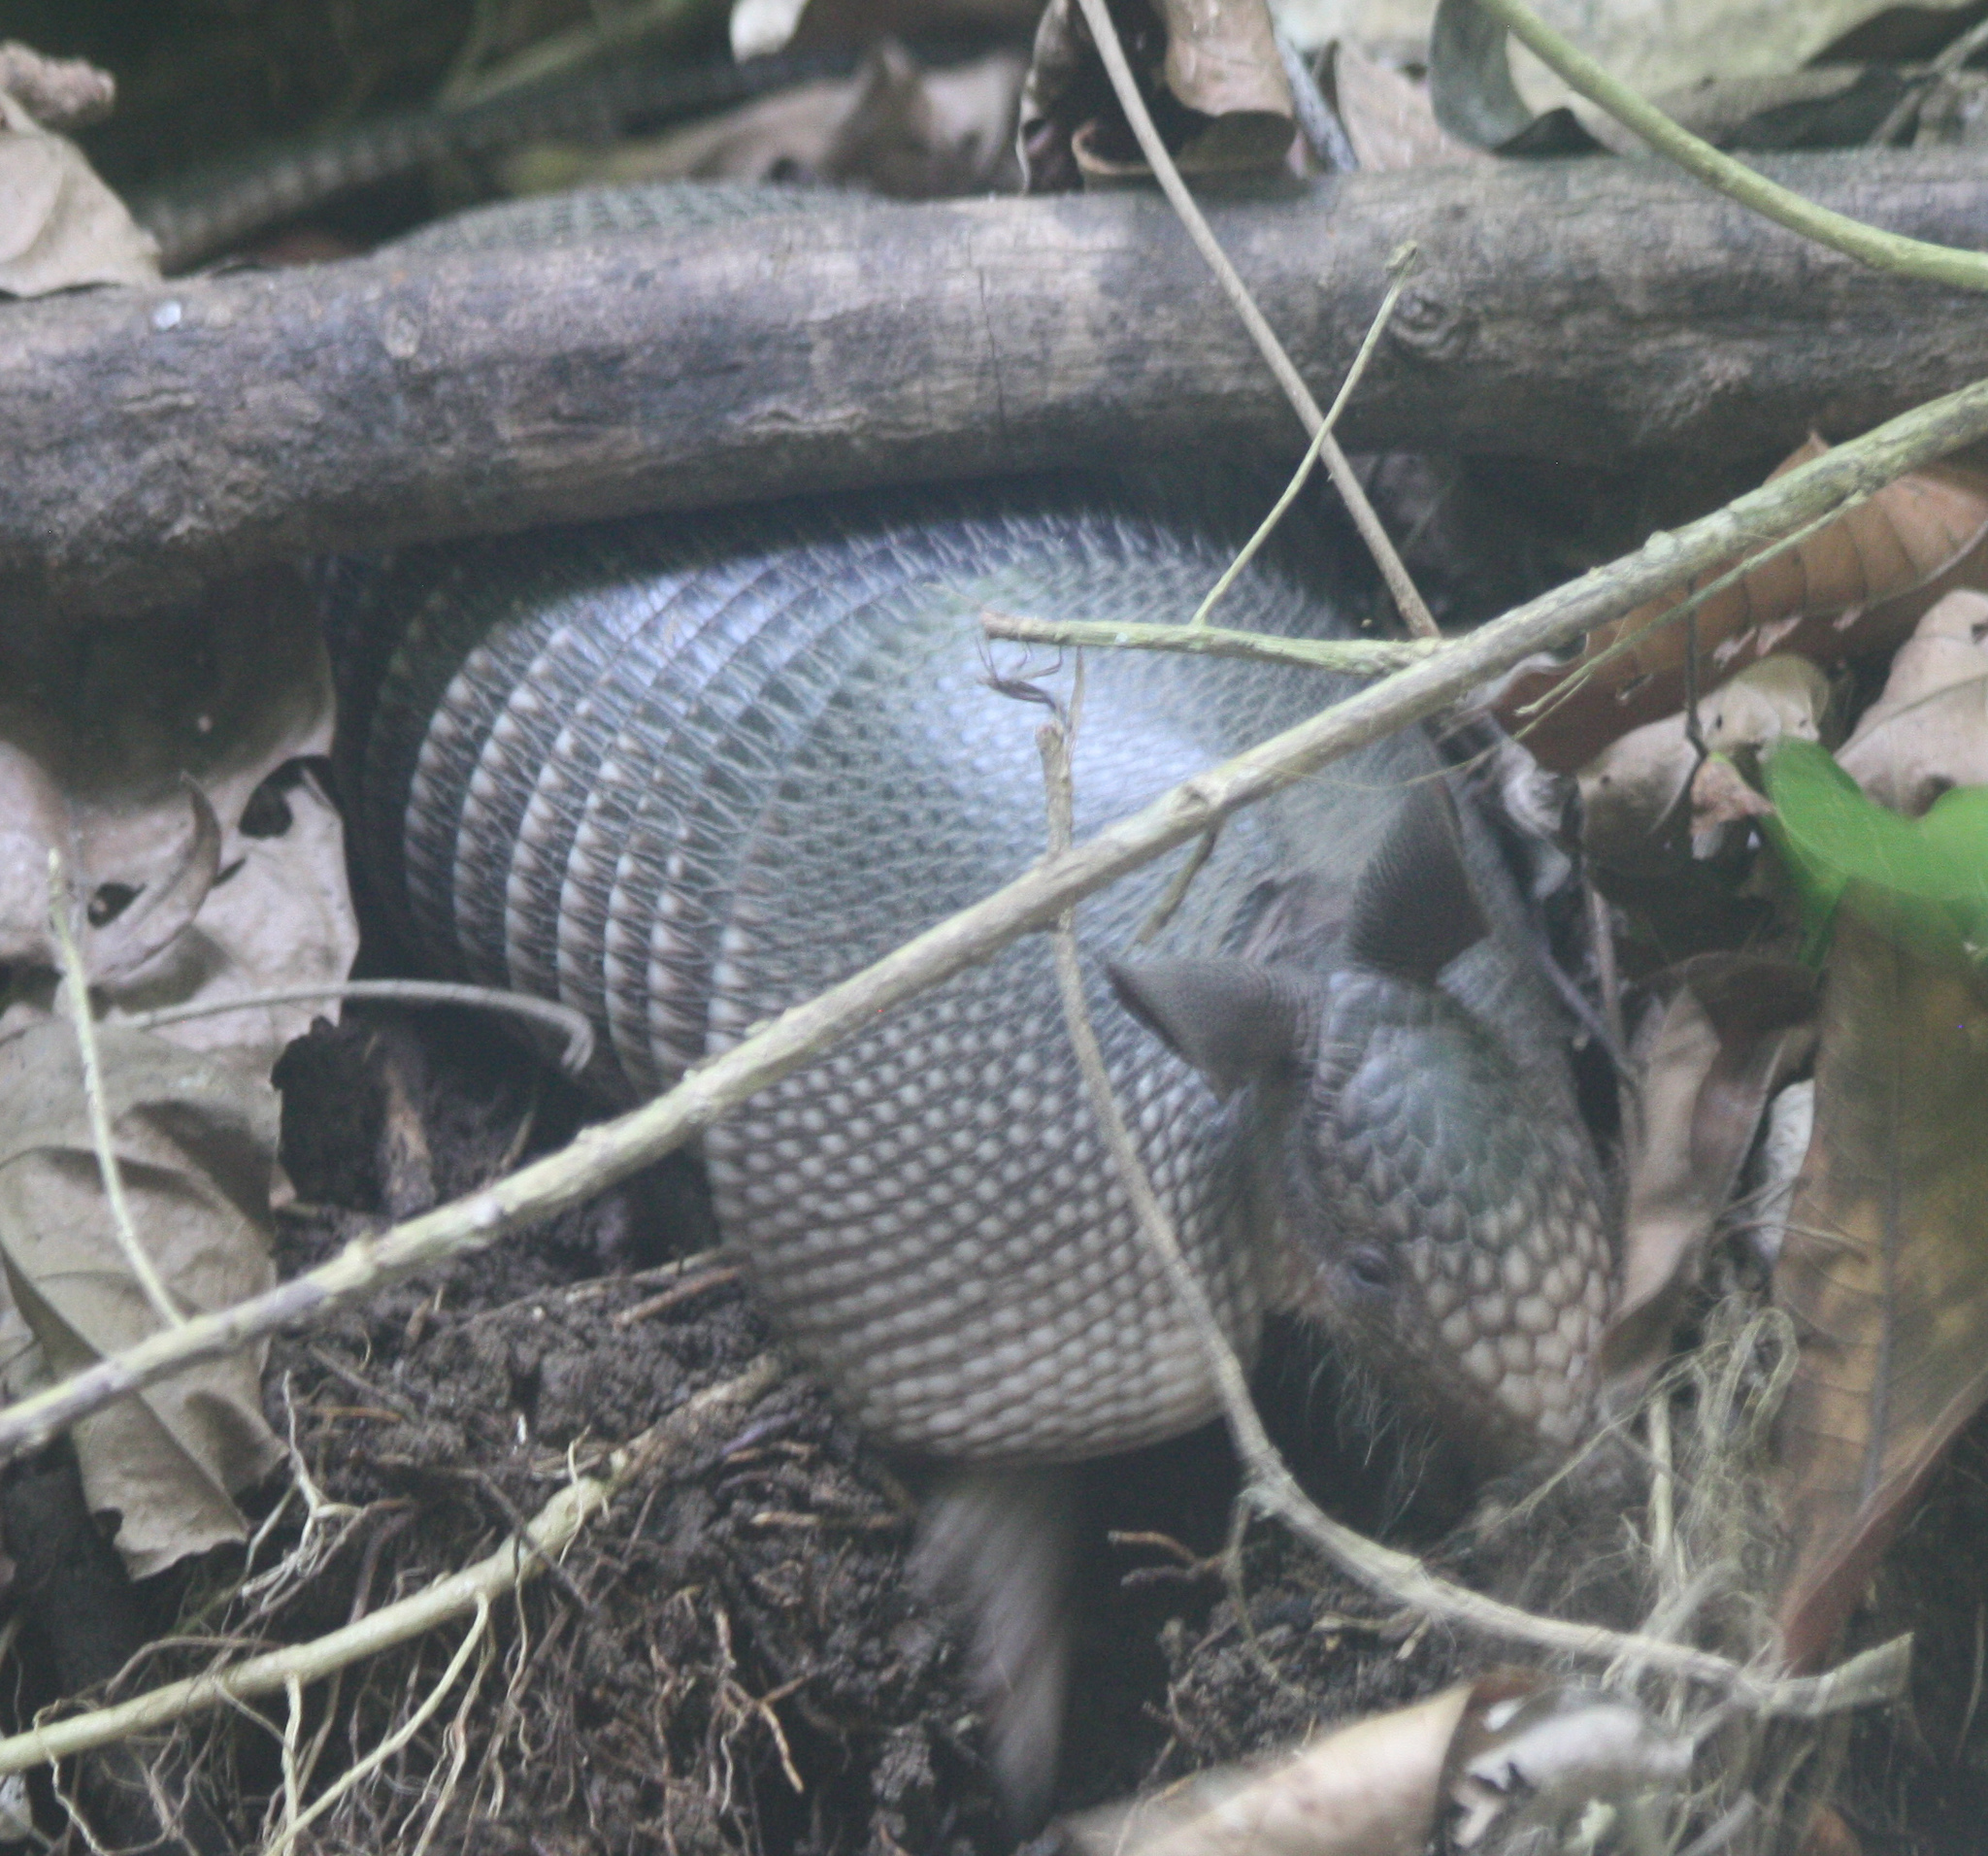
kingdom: Animalia
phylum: Chordata
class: Mammalia
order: Cingulata
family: Dasypodidae
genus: Dasypus
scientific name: Dasypus novemcinctus
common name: Nine-banded armadillo
